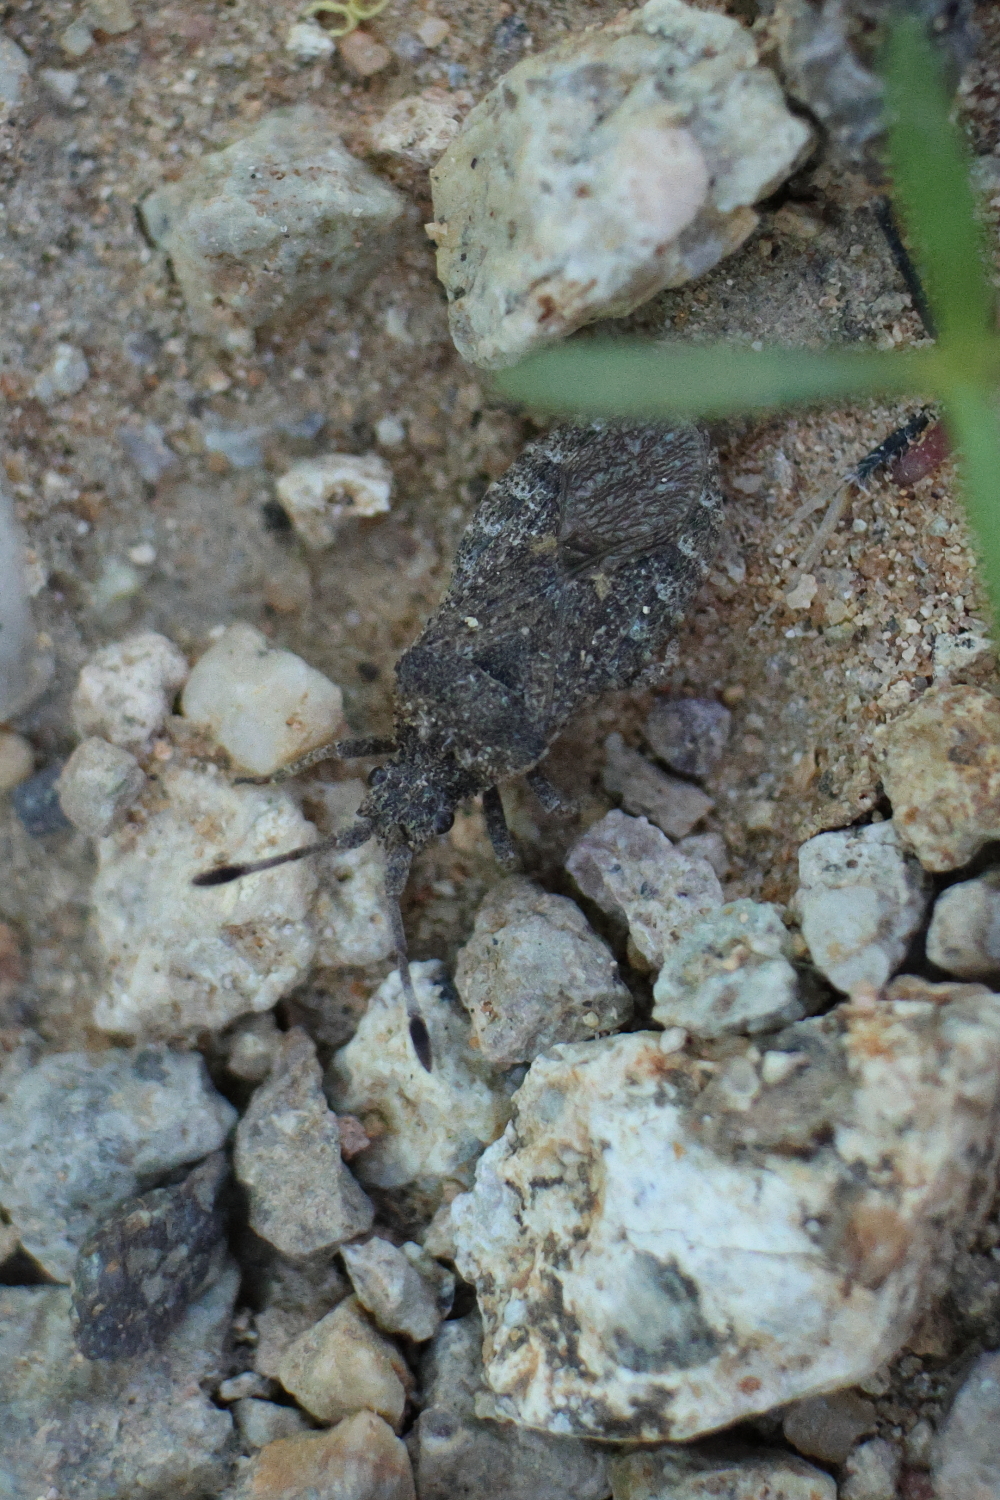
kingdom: Animalia
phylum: Arthropoda
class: Insecta
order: Hemiptera
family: Coreidae
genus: Scolopocerus
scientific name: Scolopocerus granulosus
